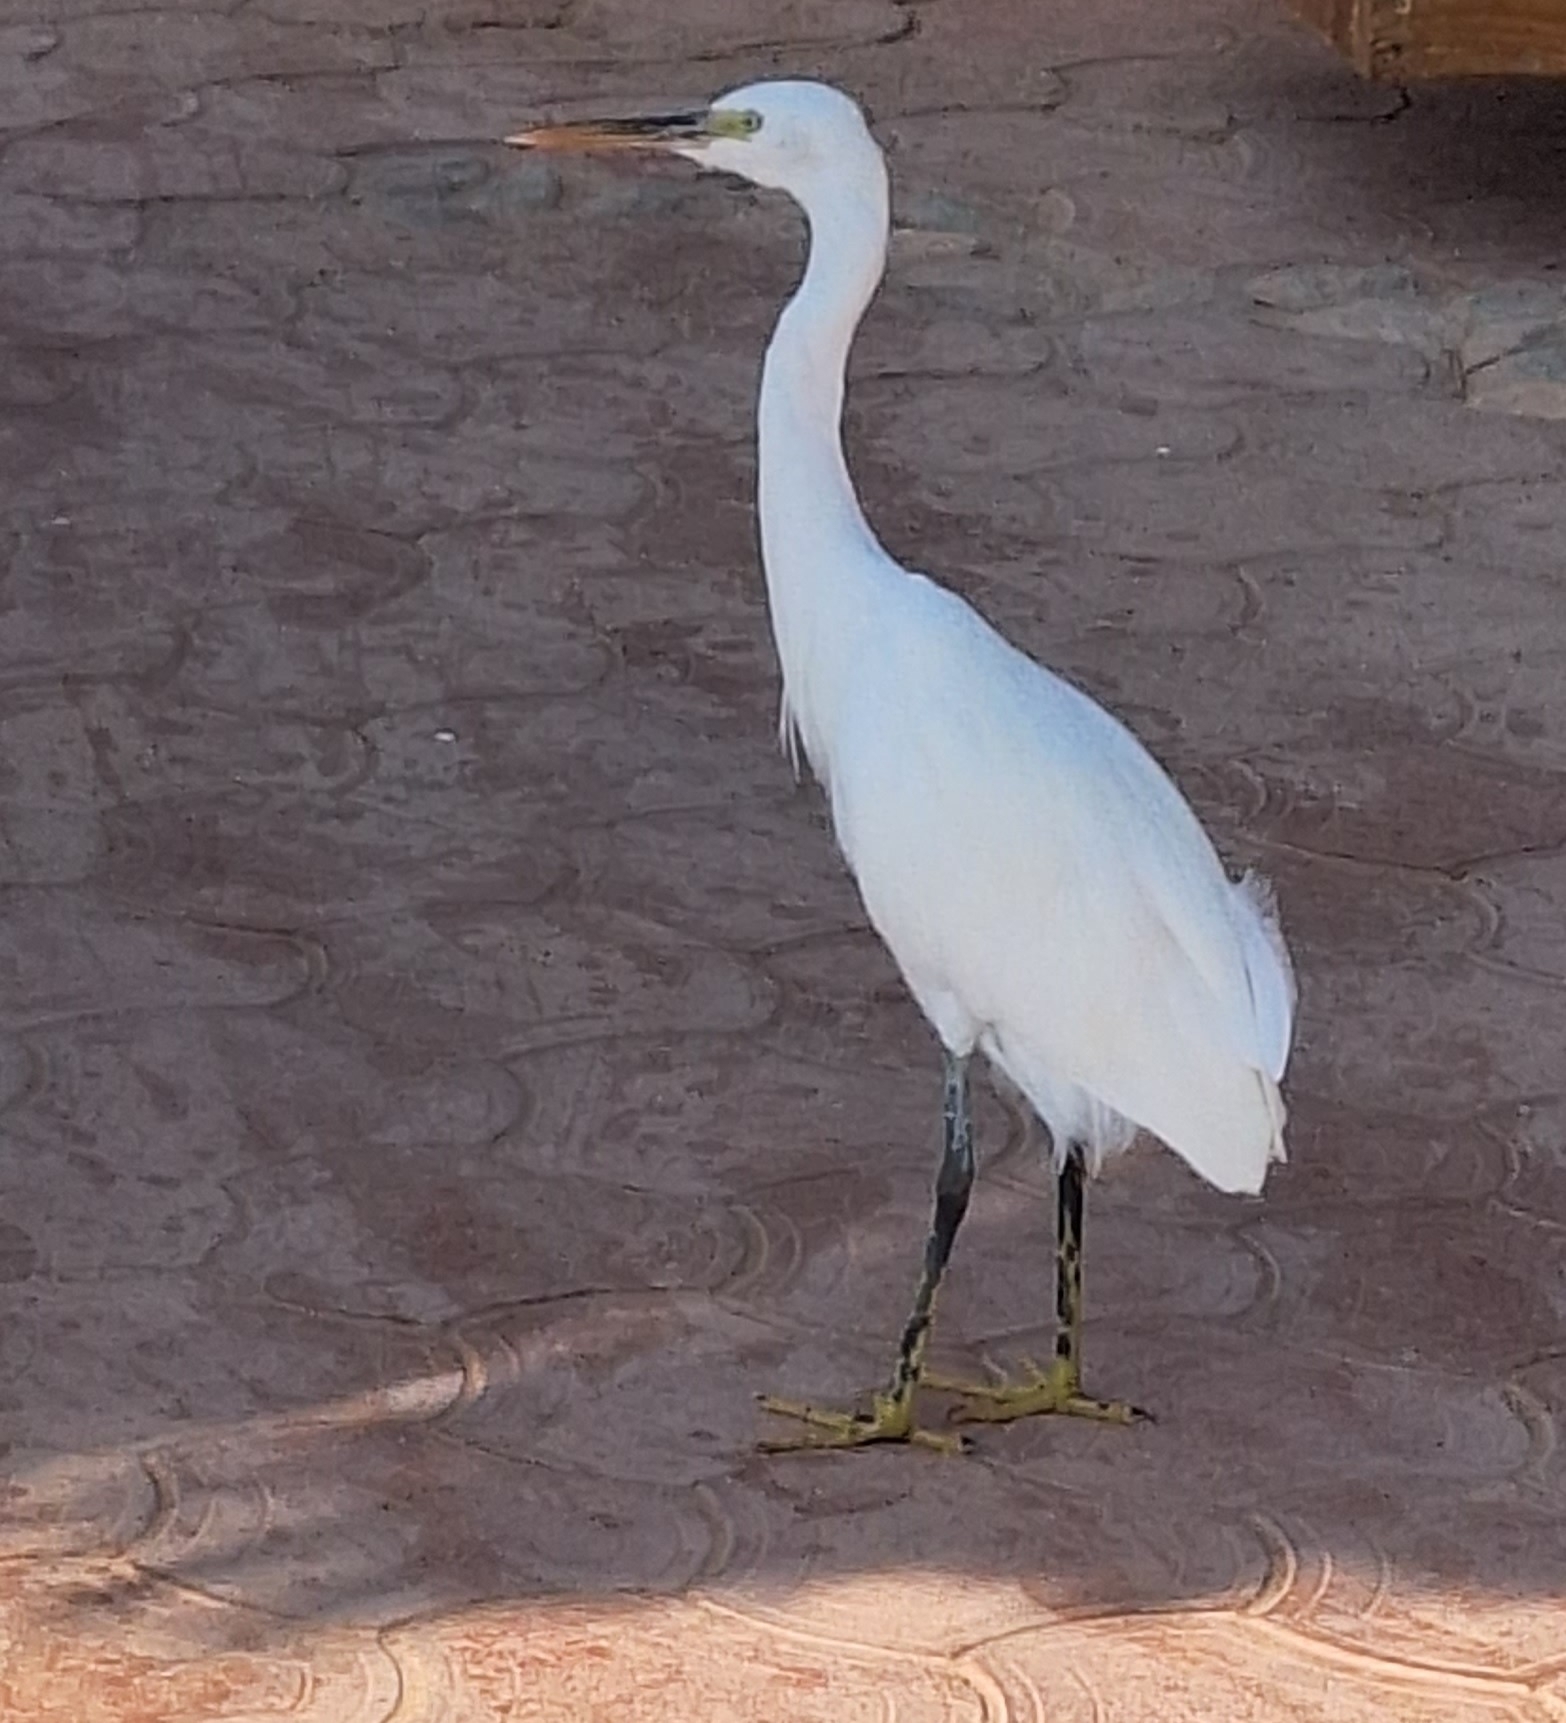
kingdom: Animalia
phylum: Chordata
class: Aves
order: Pelecaniformes
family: Ardeidae
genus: Egretta
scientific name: Egretta gularis
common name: Western reef-heron
